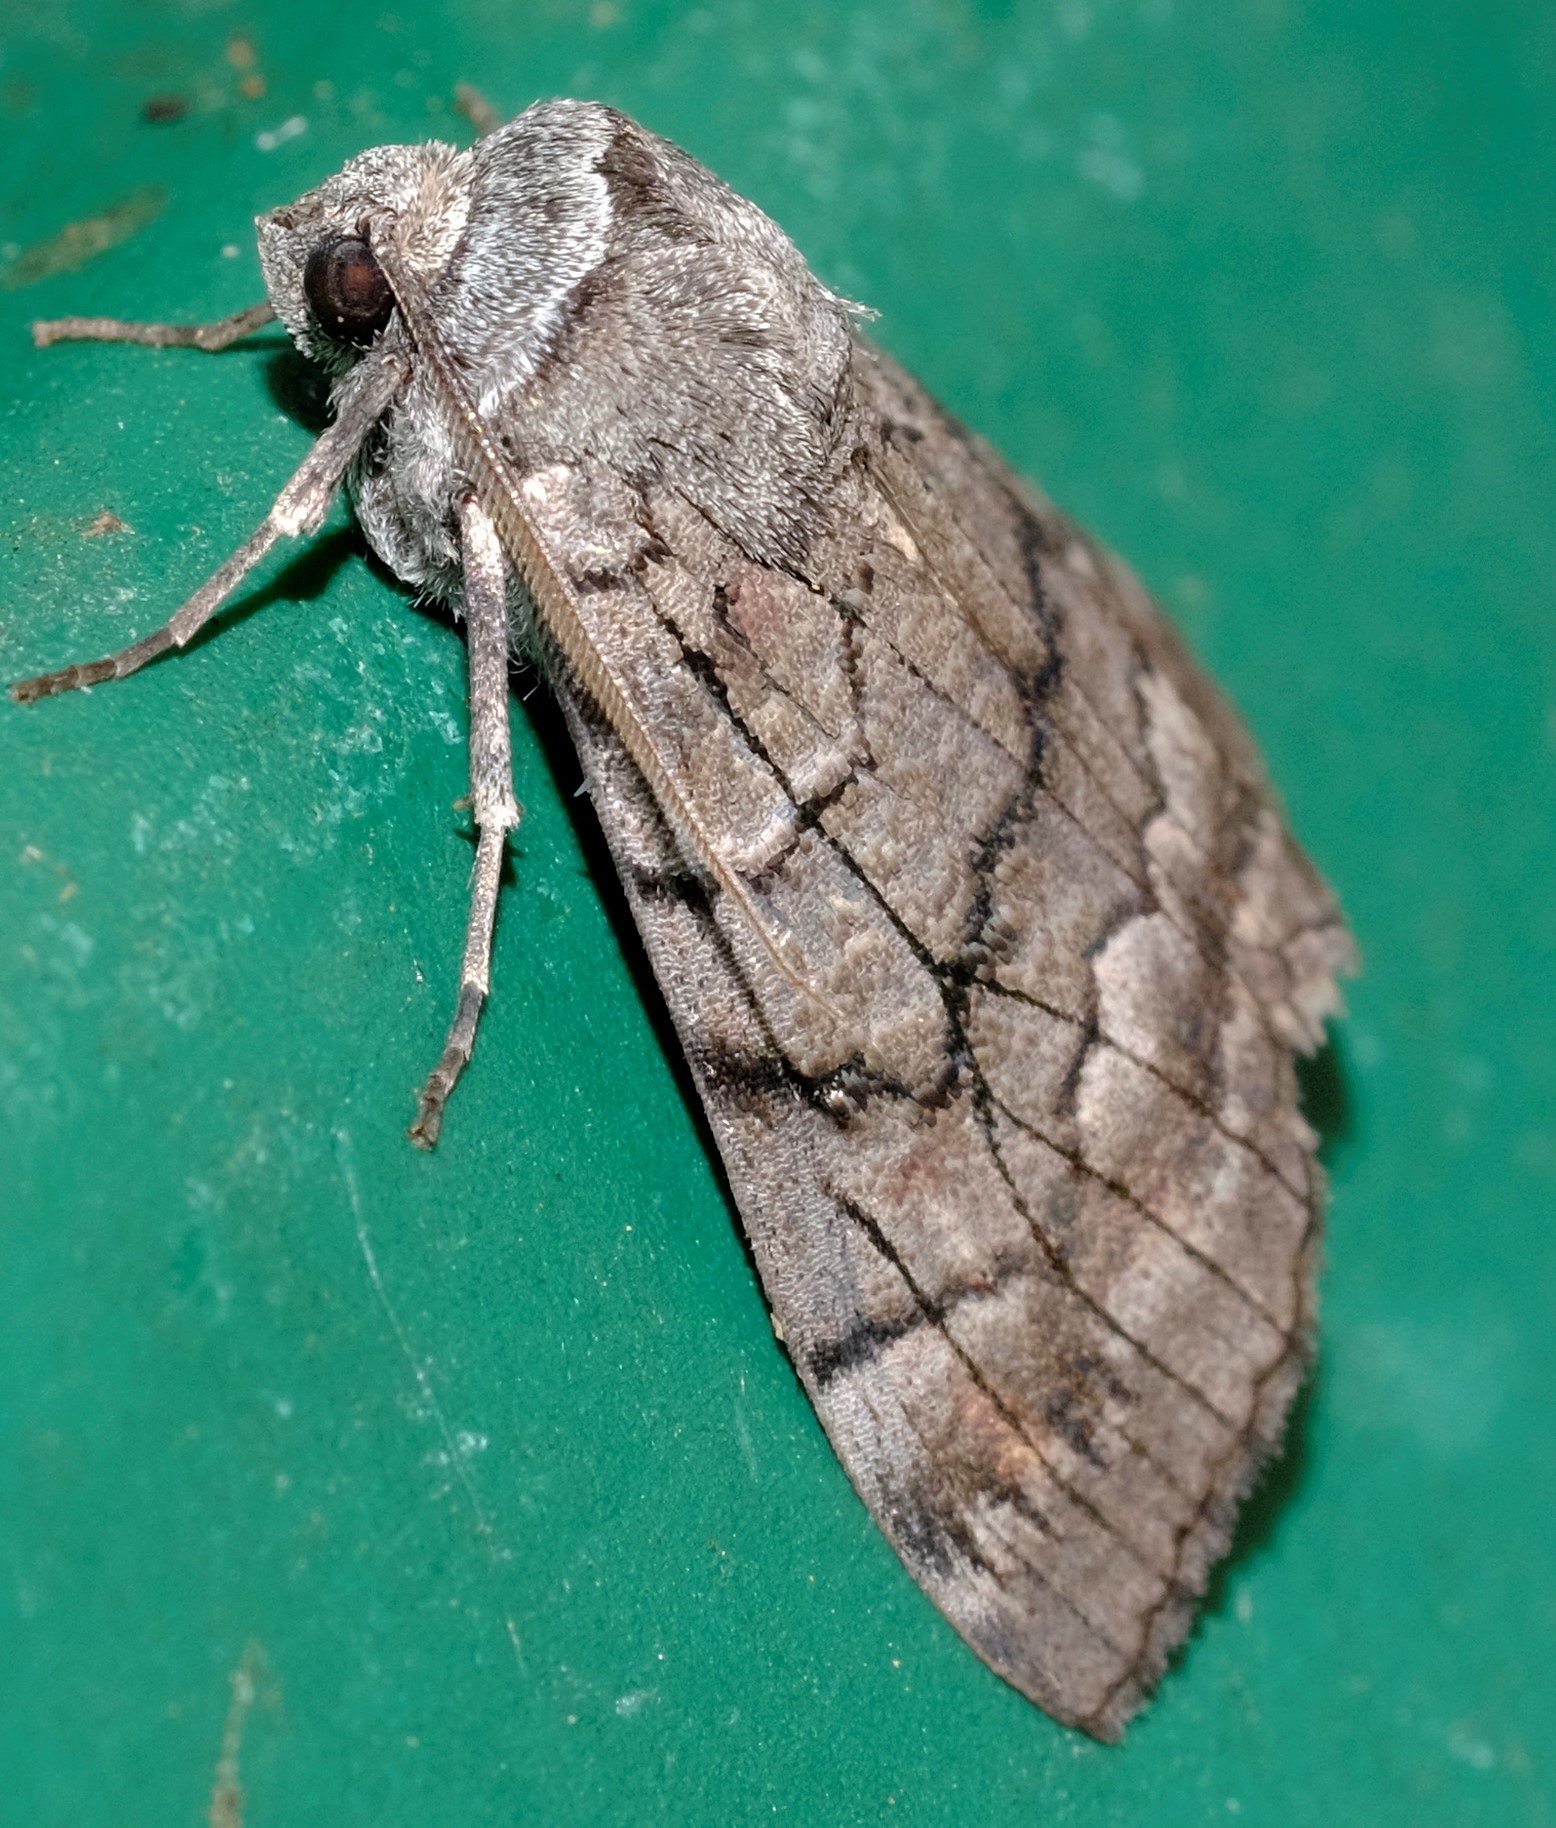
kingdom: Animalia
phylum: Arthropoda
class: Insecta
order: Lepidoptera
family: Geometridae
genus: Stibaroma
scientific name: Stibaroma
